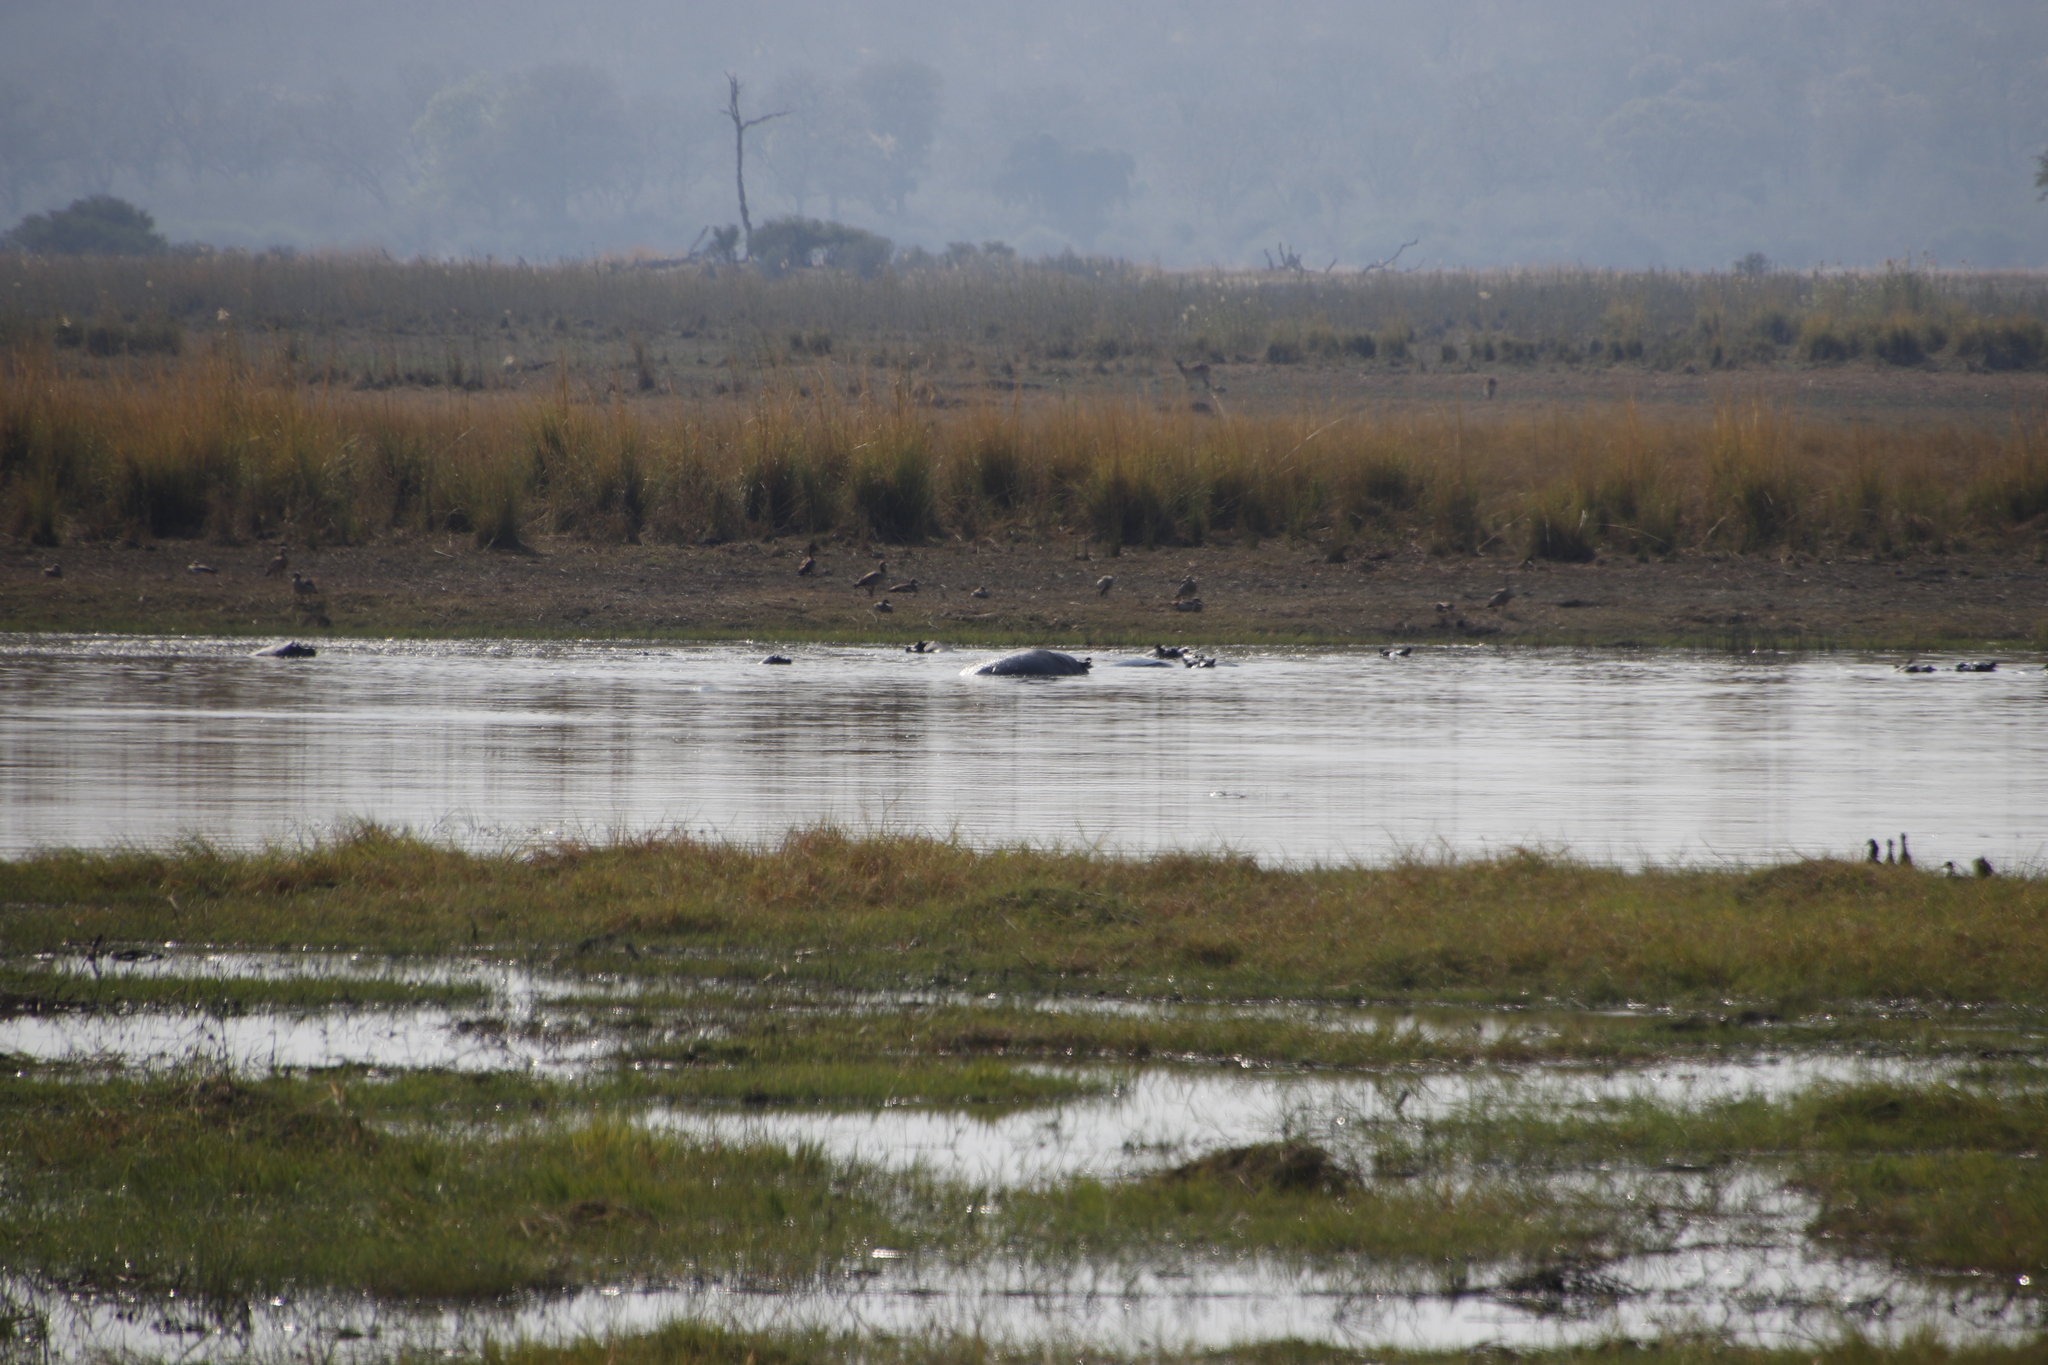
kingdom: Animalia
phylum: Chordata
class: Mammalia
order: Artiodactyla
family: Hippopotamidae
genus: Hippopotamus
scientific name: Hippopotamus amphibius
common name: Common hippopotamus
